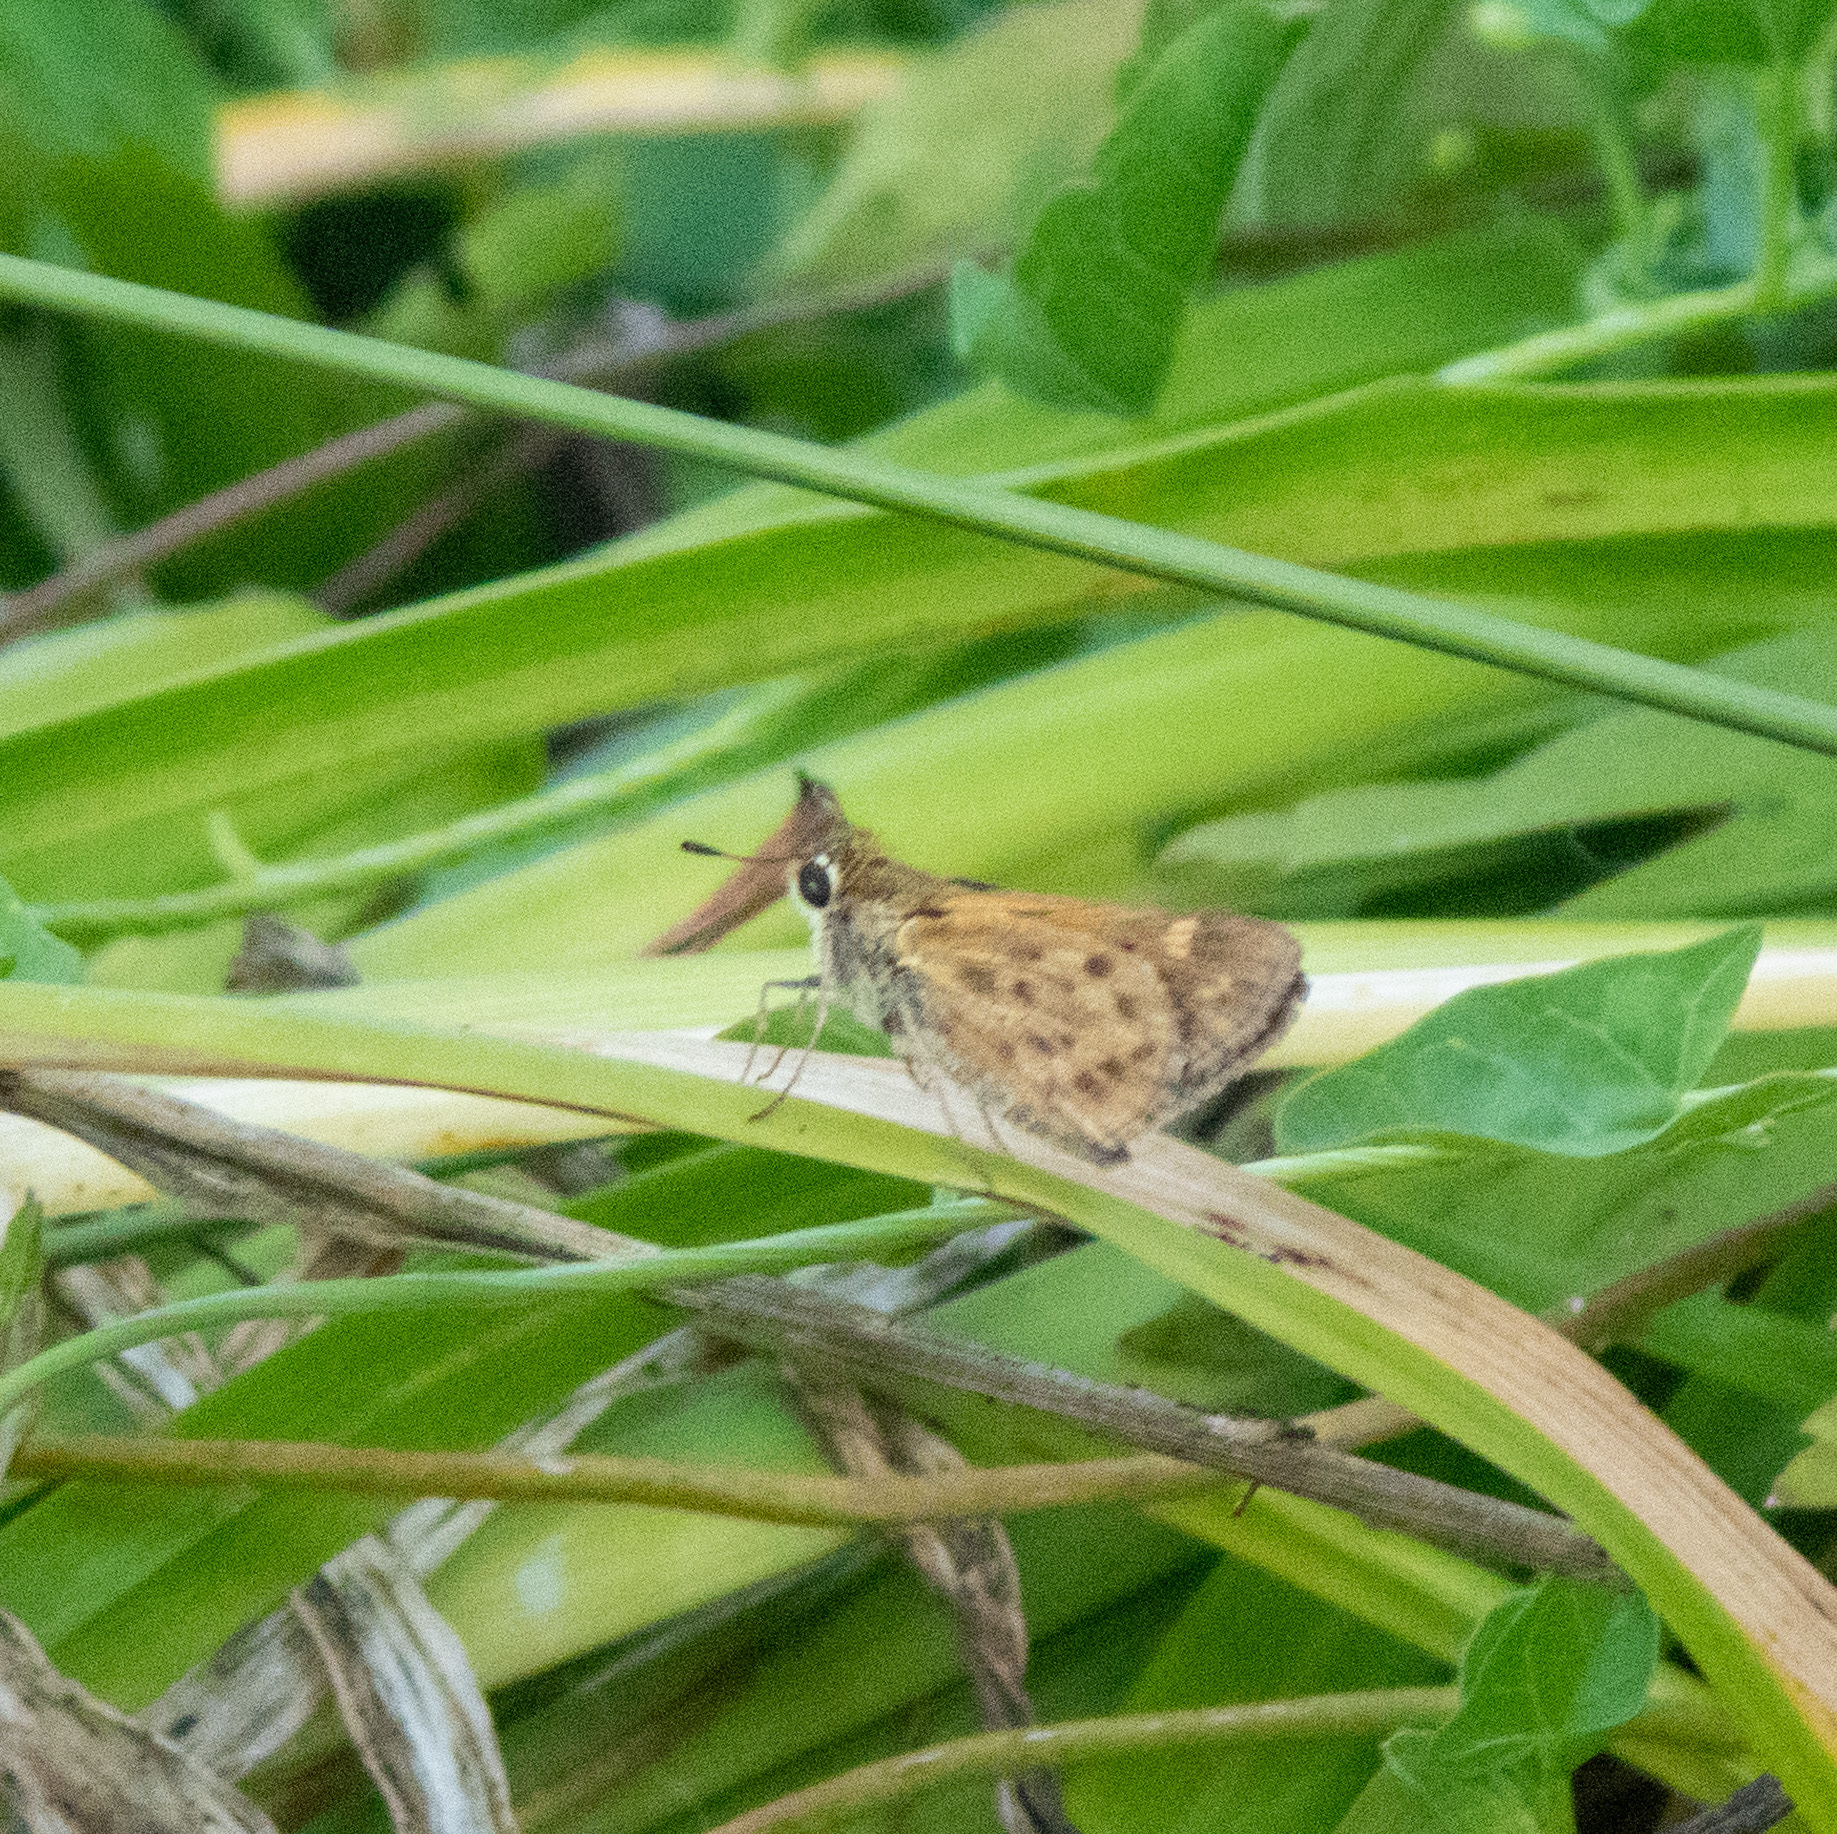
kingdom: Animalia
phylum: Arthropoda
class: Insecta
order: Lepidoptera
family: Hesperiidae
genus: Hylephila
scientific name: Hylephila phyleus
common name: Fiery skipper
